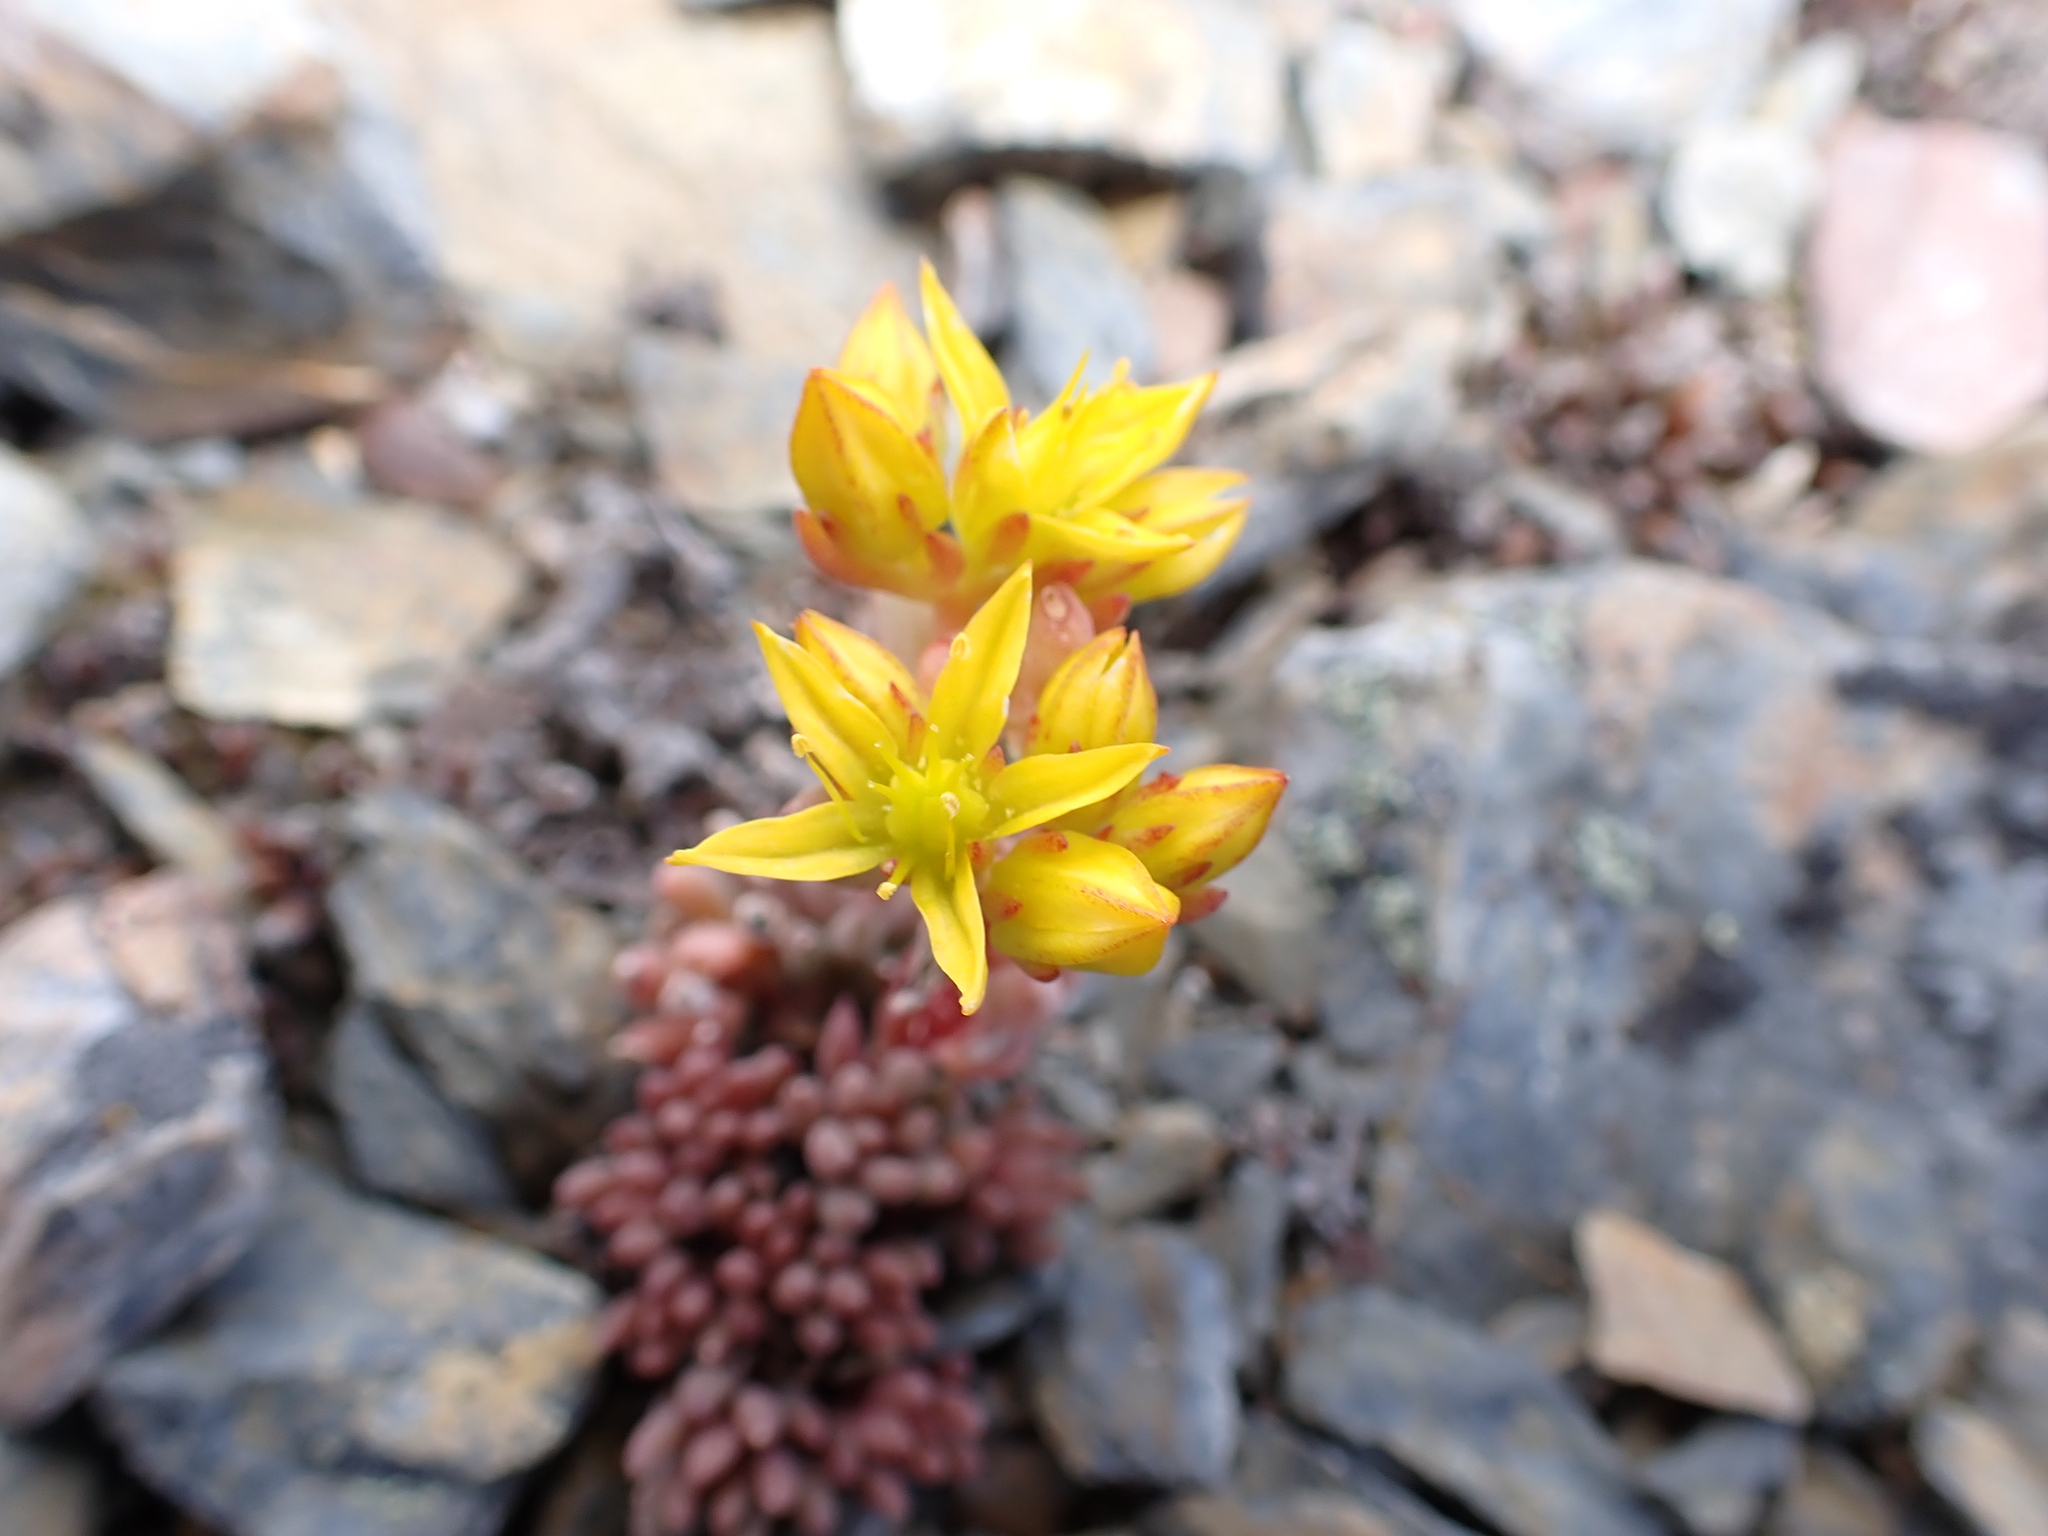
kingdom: Plantae
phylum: Tracheophyta
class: Magnoliopsida
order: Saxifragales
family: Crassulaceae
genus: Sedum
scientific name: Sedum lanceolatum
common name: Common stonecrop
